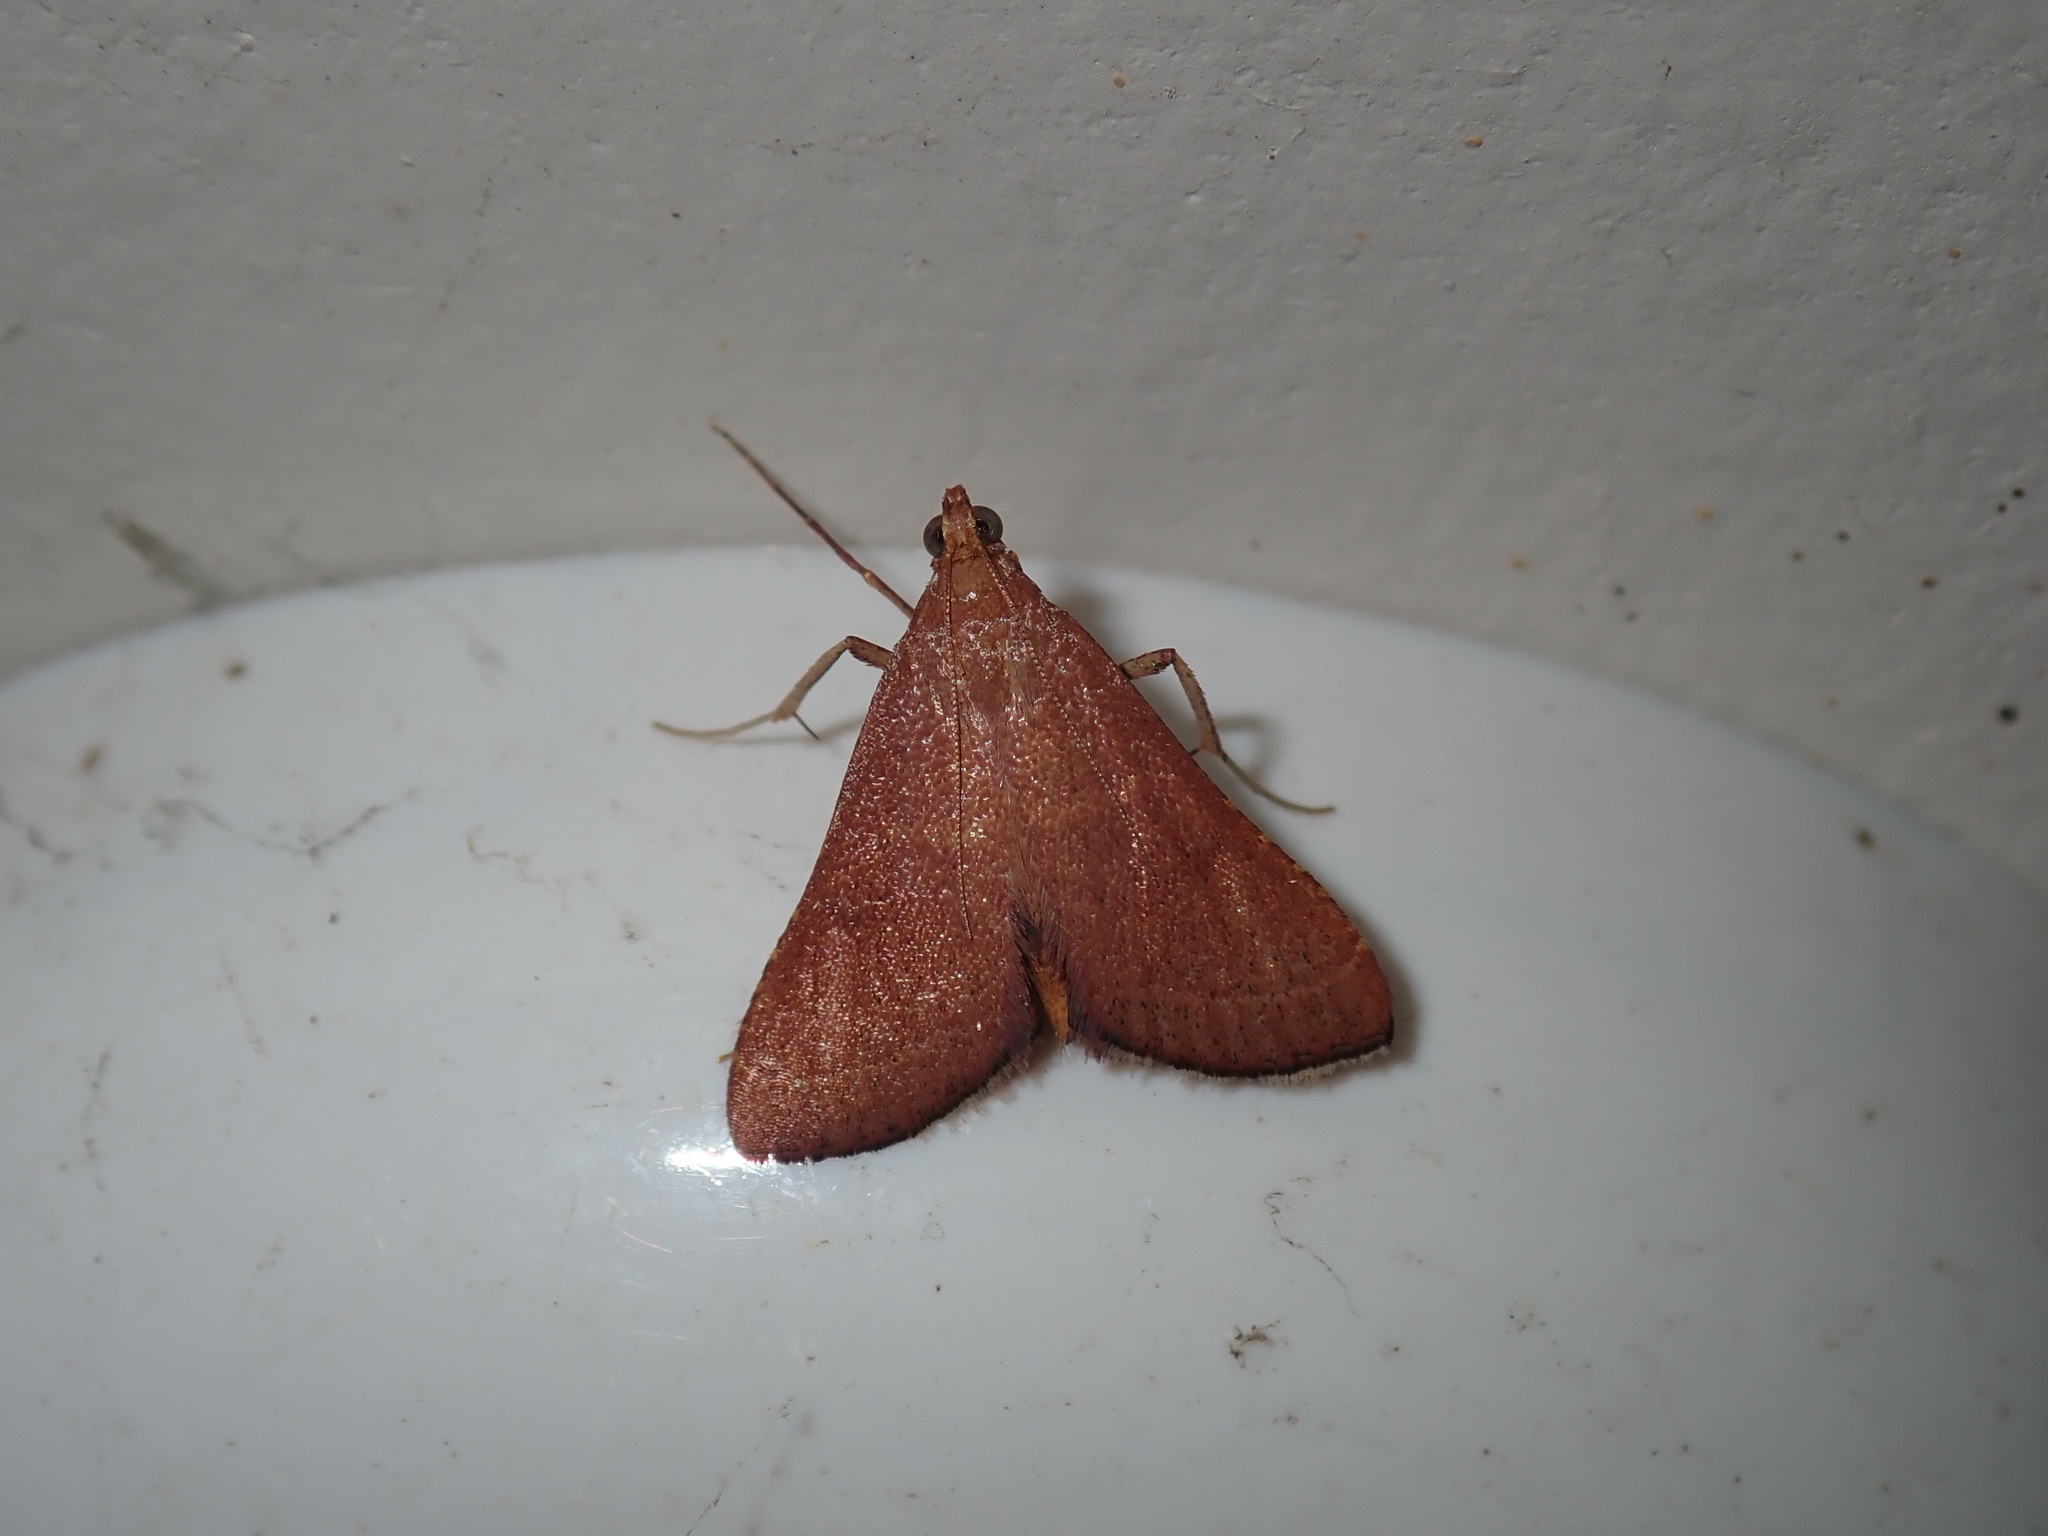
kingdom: Animalia
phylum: Arthropoda
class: Insecta
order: Lepidoptera
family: Pyralidae
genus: Endotricha
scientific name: Endotricha pyrosalis
